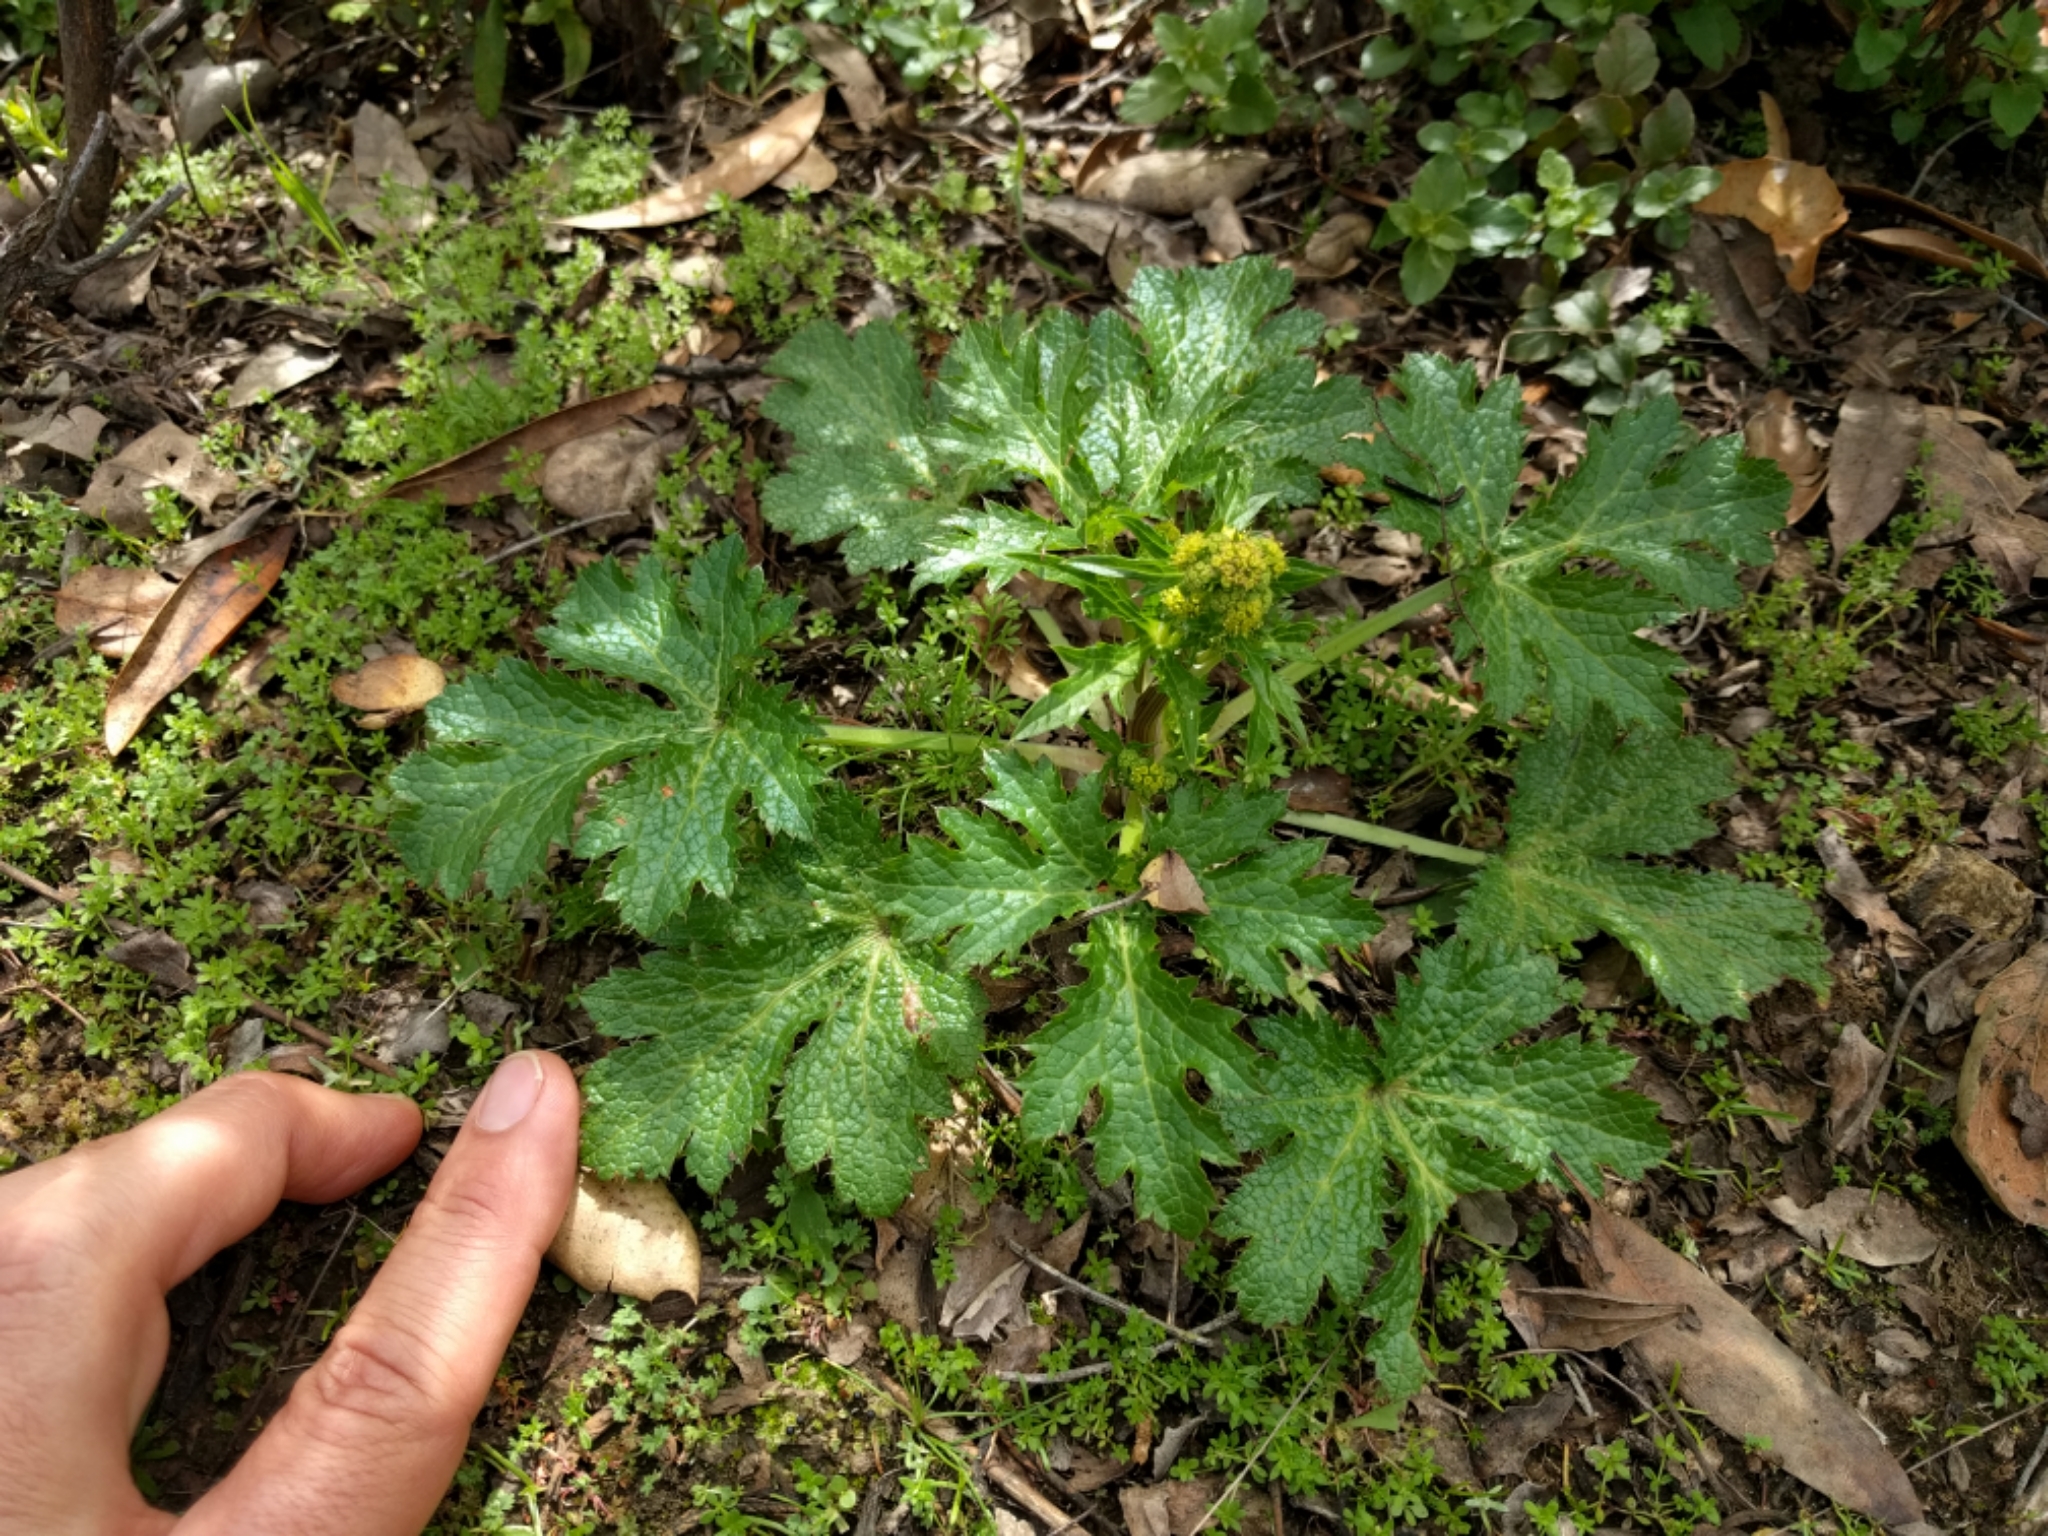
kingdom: Plantae
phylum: Tracheophyta
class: Magnoliopsida
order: Apiales
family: Apiaceae
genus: Sanicula
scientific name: Sanicula crassicaulis
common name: Western snakeroot
